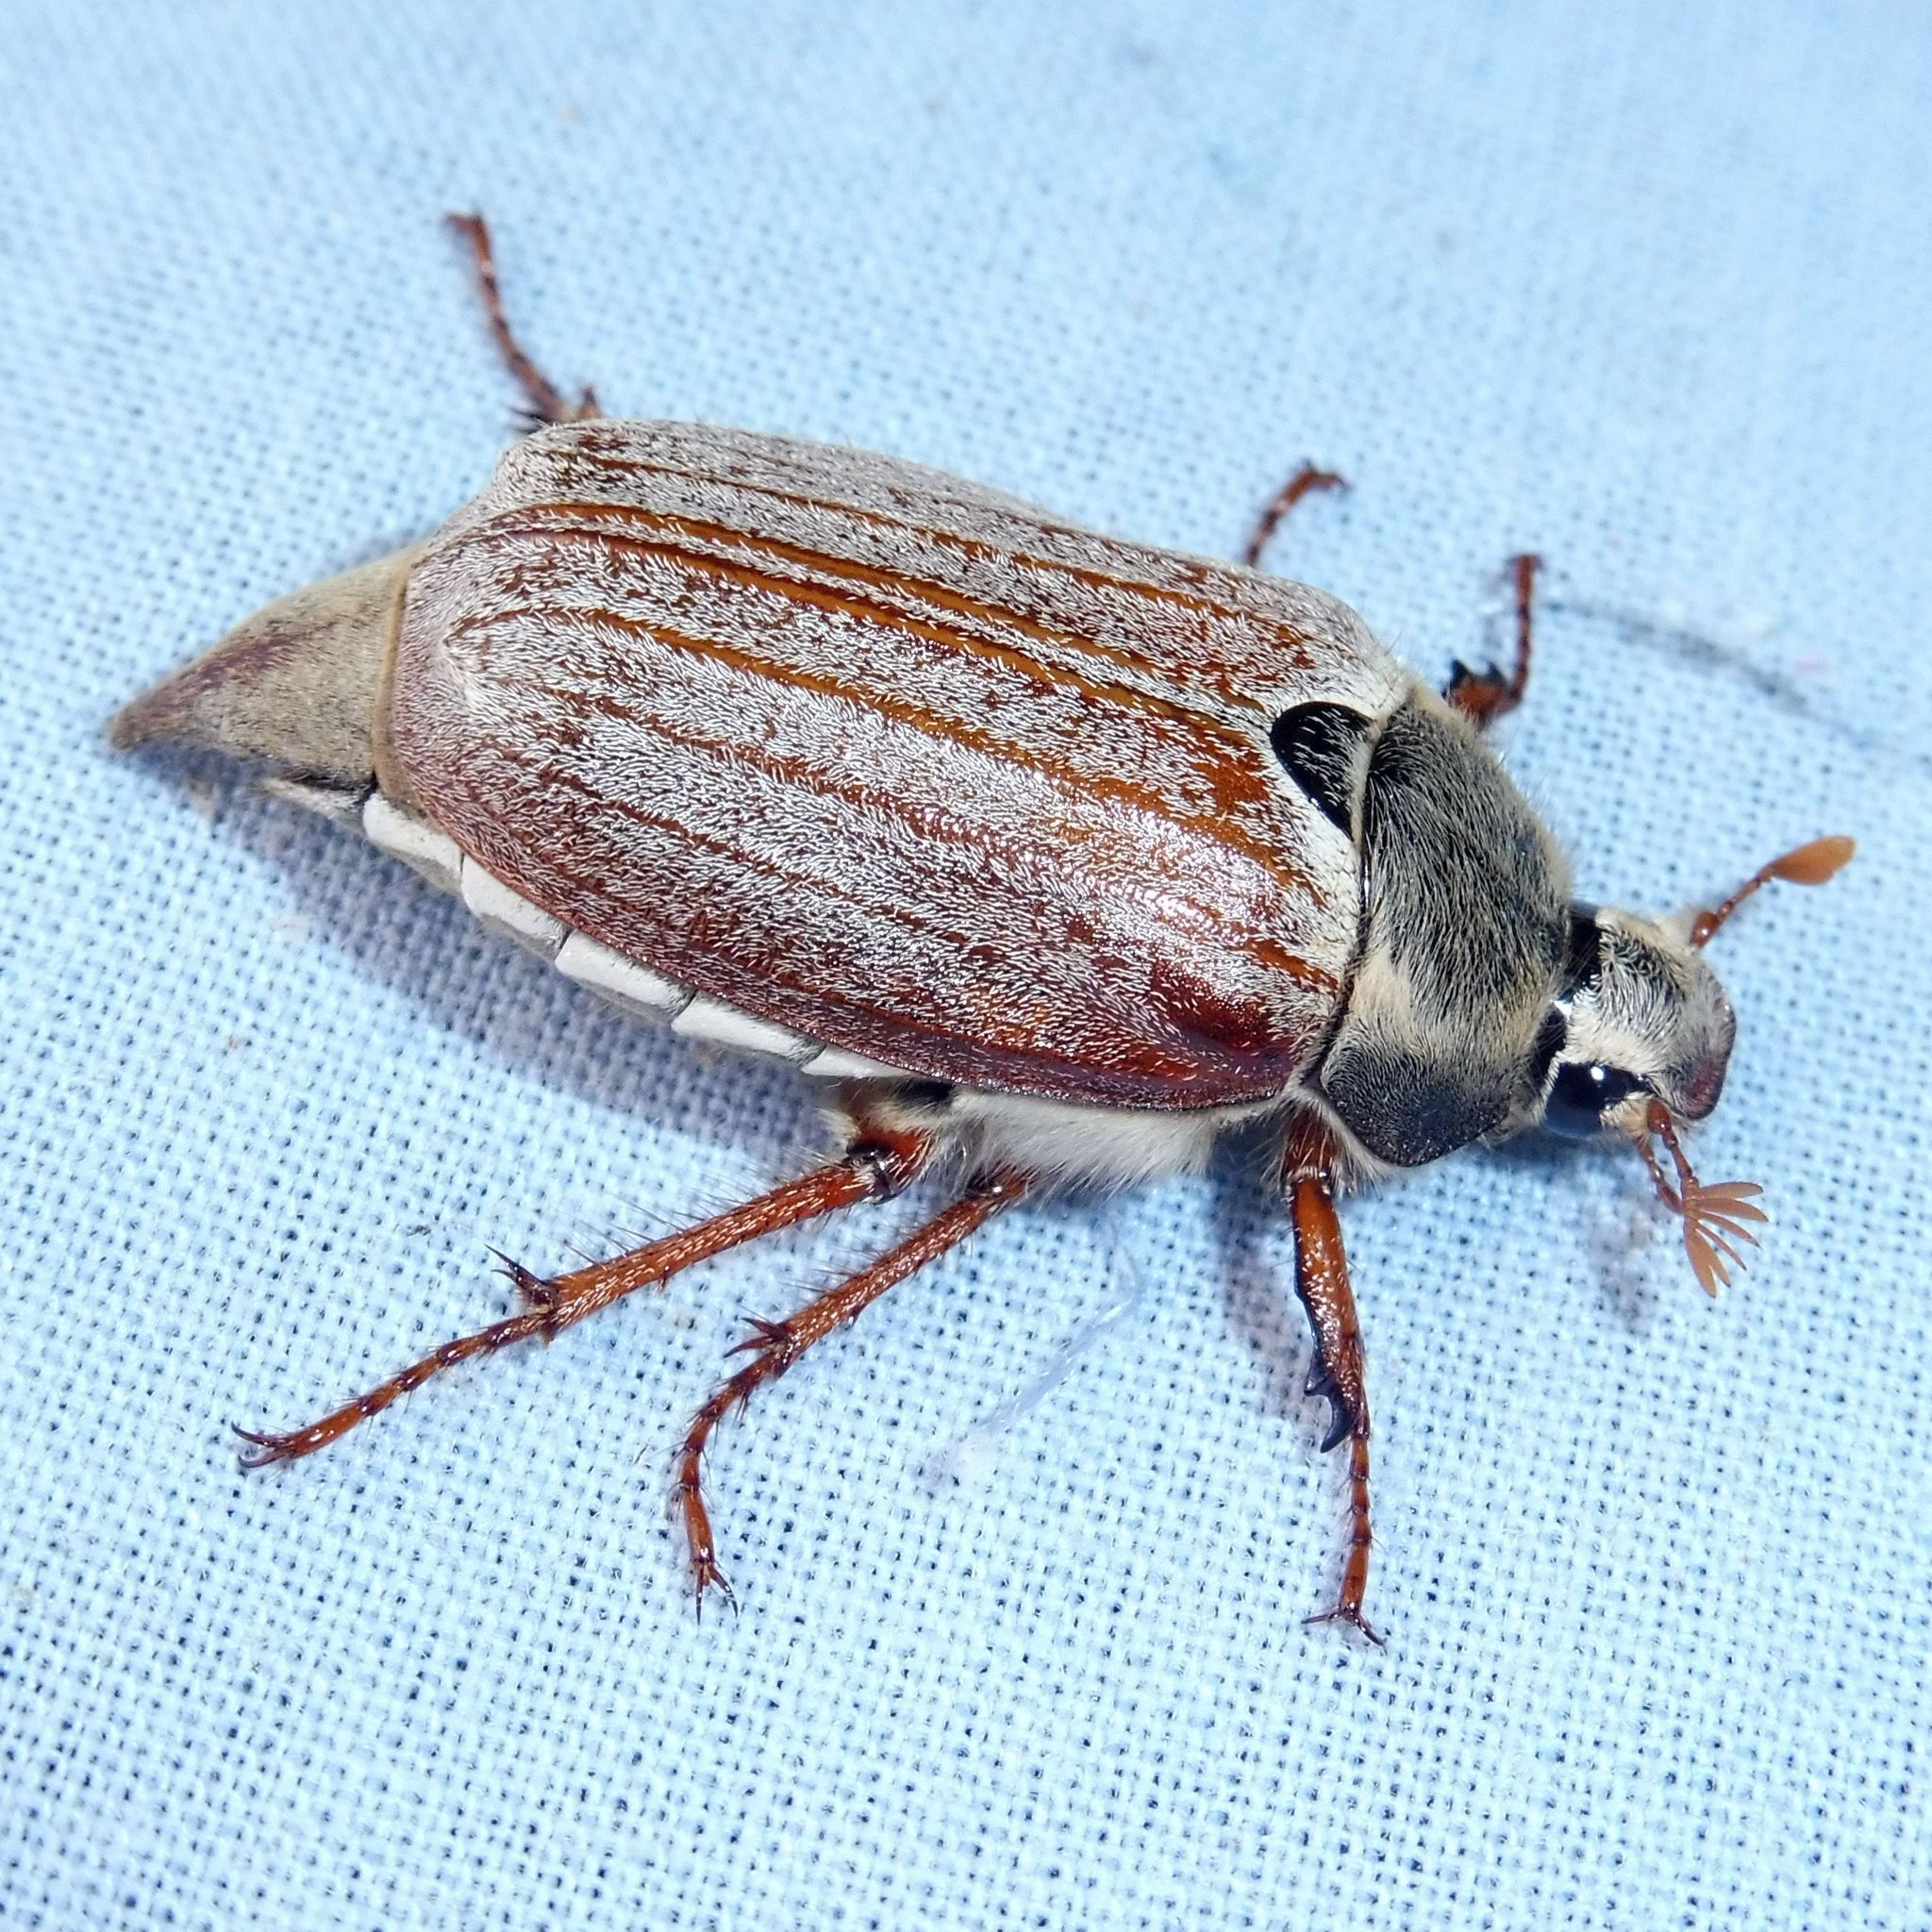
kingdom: Animalia
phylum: Arthropoda
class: Insecta
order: Coleoptera
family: Scarabaeidae
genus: Melolontha
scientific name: Melolontha melolontha
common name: Cockchafer maybeetle
